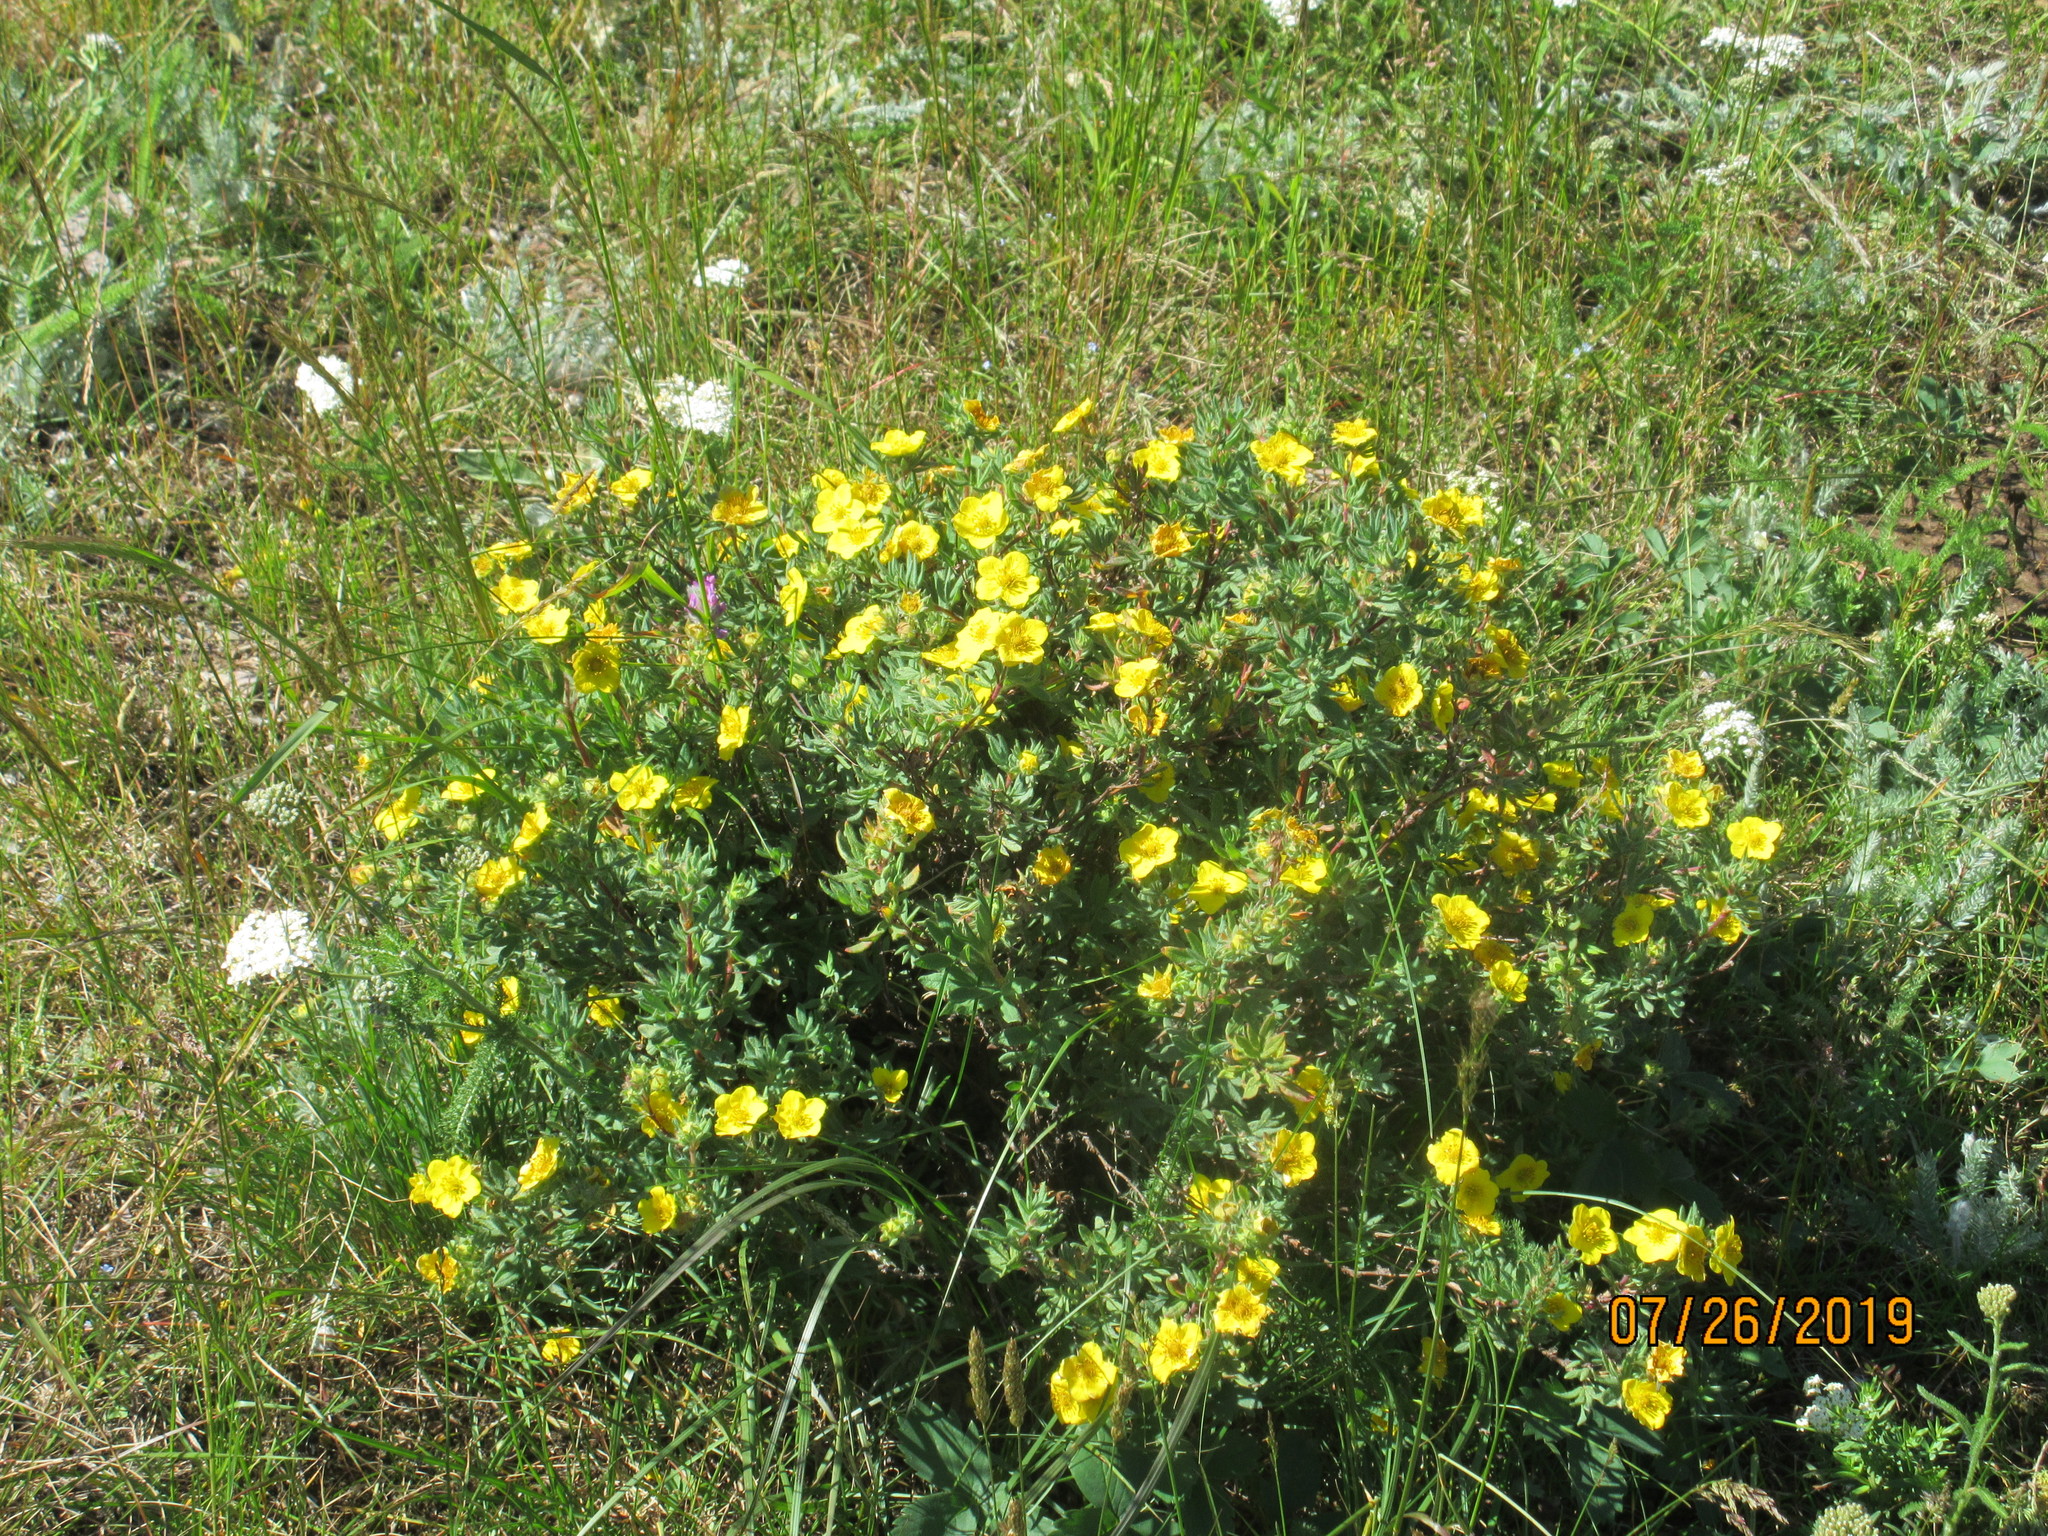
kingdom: Plantae
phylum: Tracheophyta
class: Magnoliopsida
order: Rosales
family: Rosaceae
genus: Dasiphora
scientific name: Dasiphora fruticosa
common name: Shrubby cinquefoil
